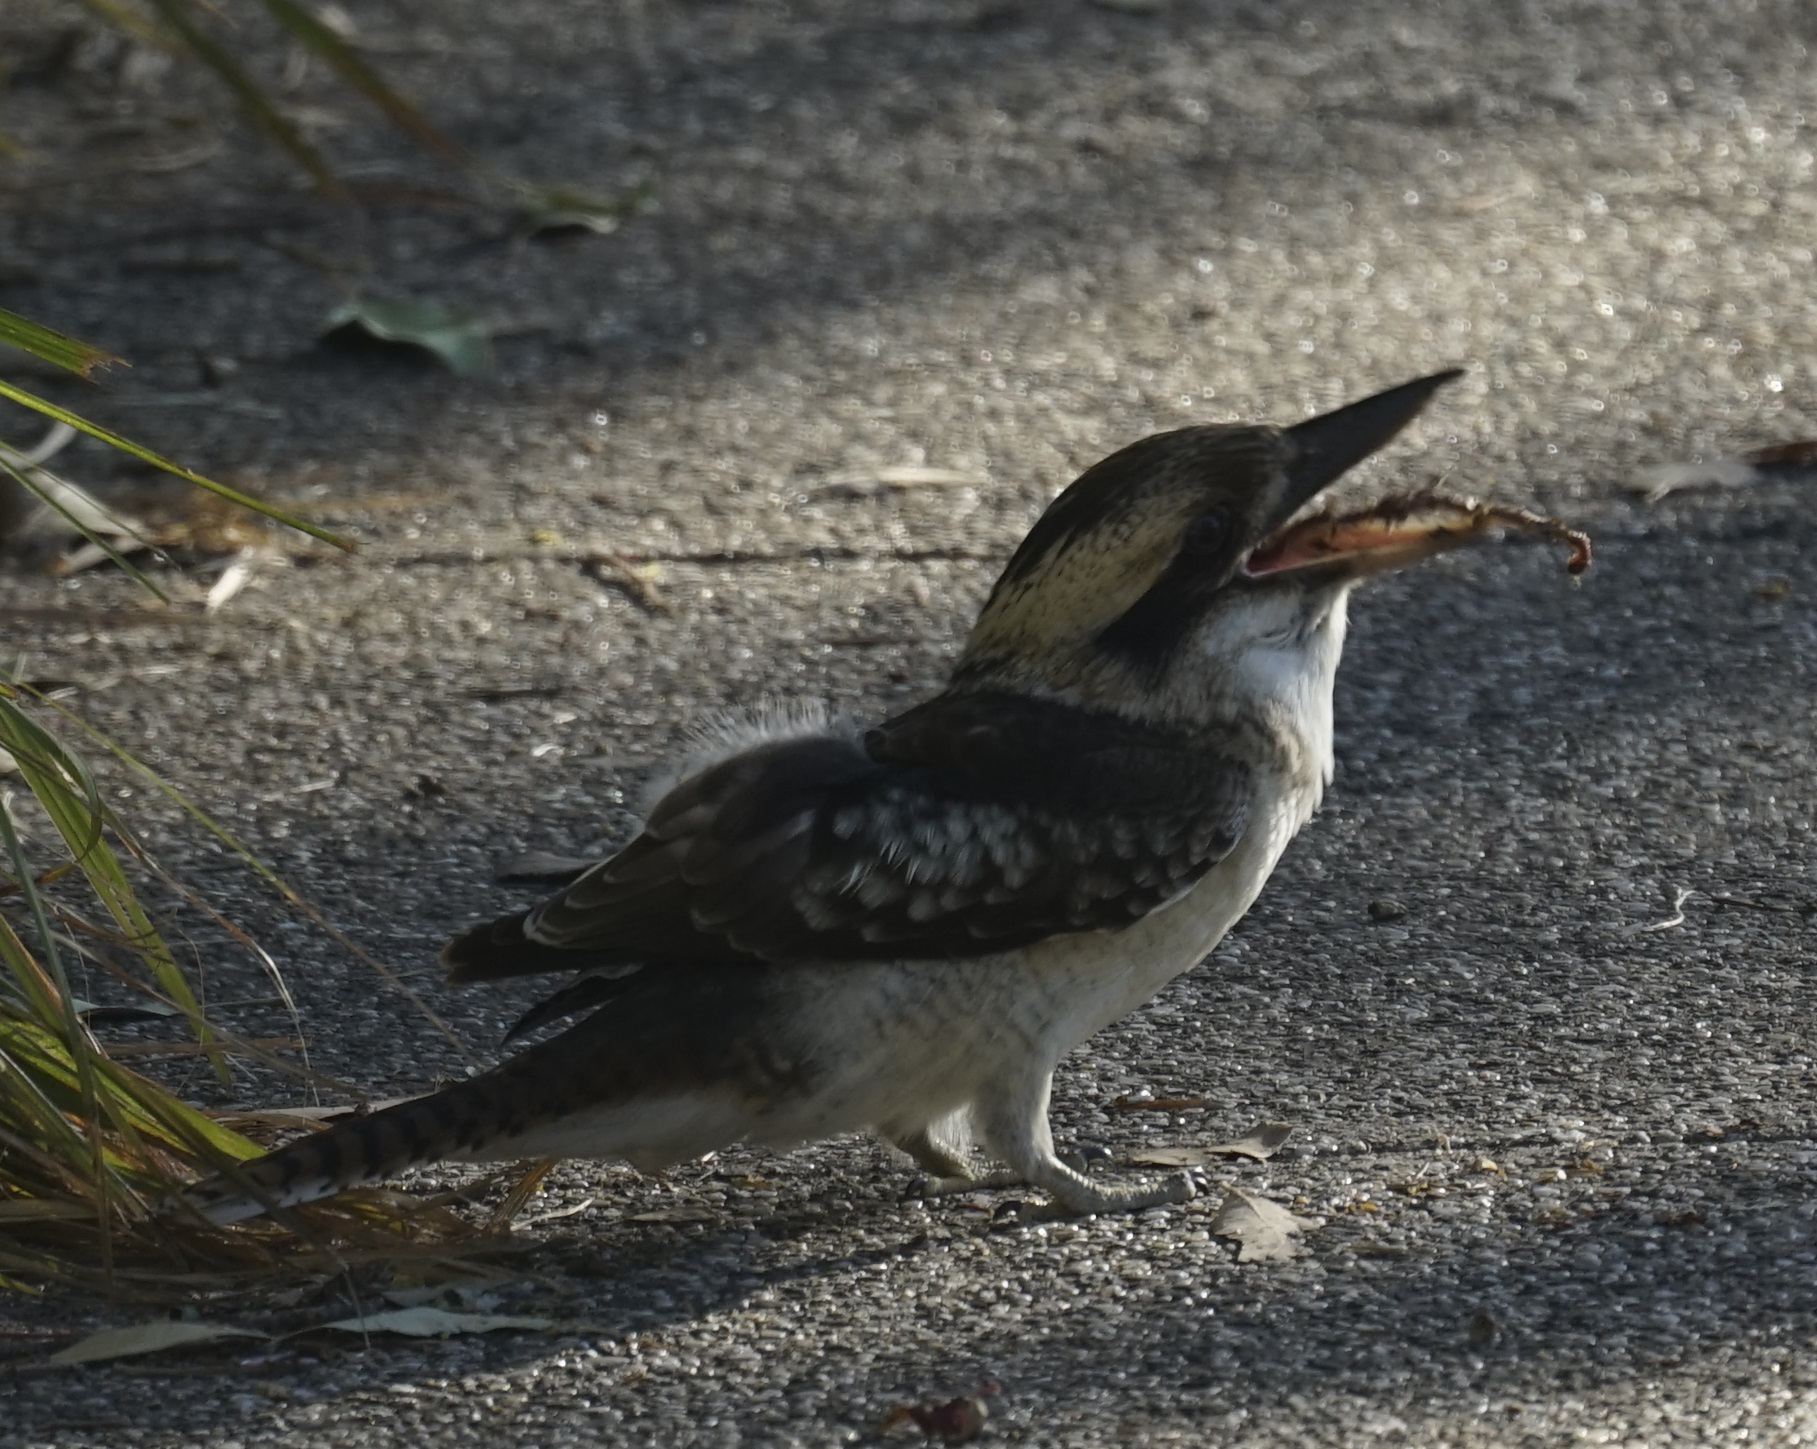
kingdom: Animalia
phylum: Chordata
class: Aves
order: Coraciiformes
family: Alcedinidae
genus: Dacelo
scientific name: Dacelo novaeguineae
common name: Laughing kookaburra
